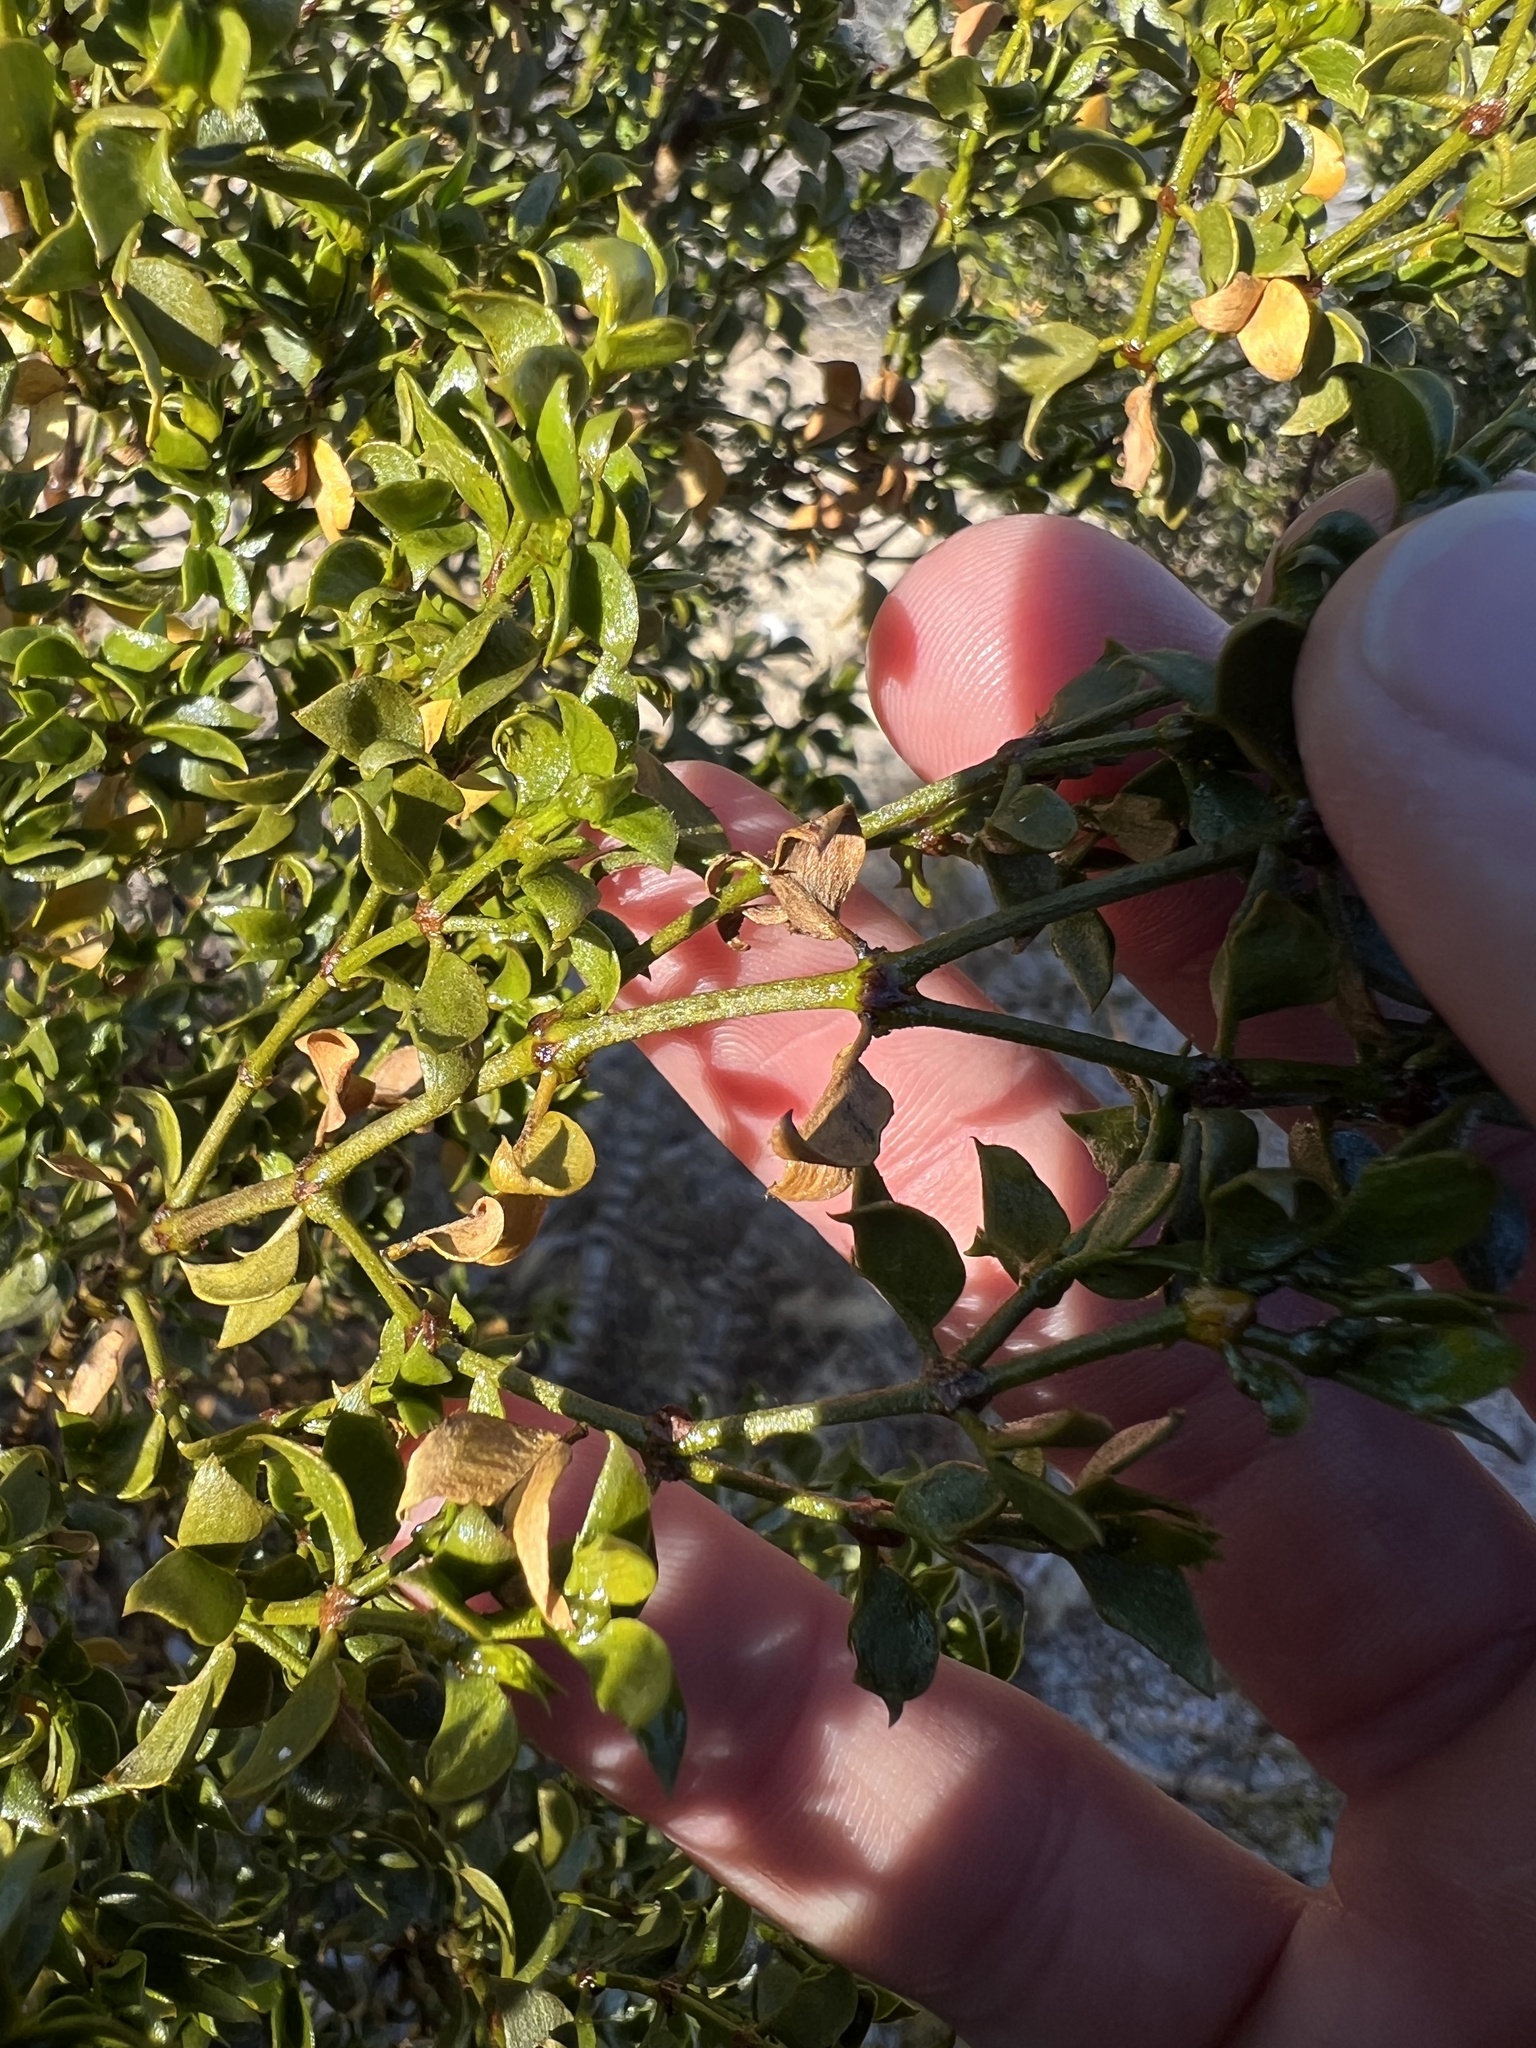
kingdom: Plantae
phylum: Tracheophyta
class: Magnoliopsida
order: Zygophyllales
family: Zygophyllaceae
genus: Larrea
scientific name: Larrea tridentata
